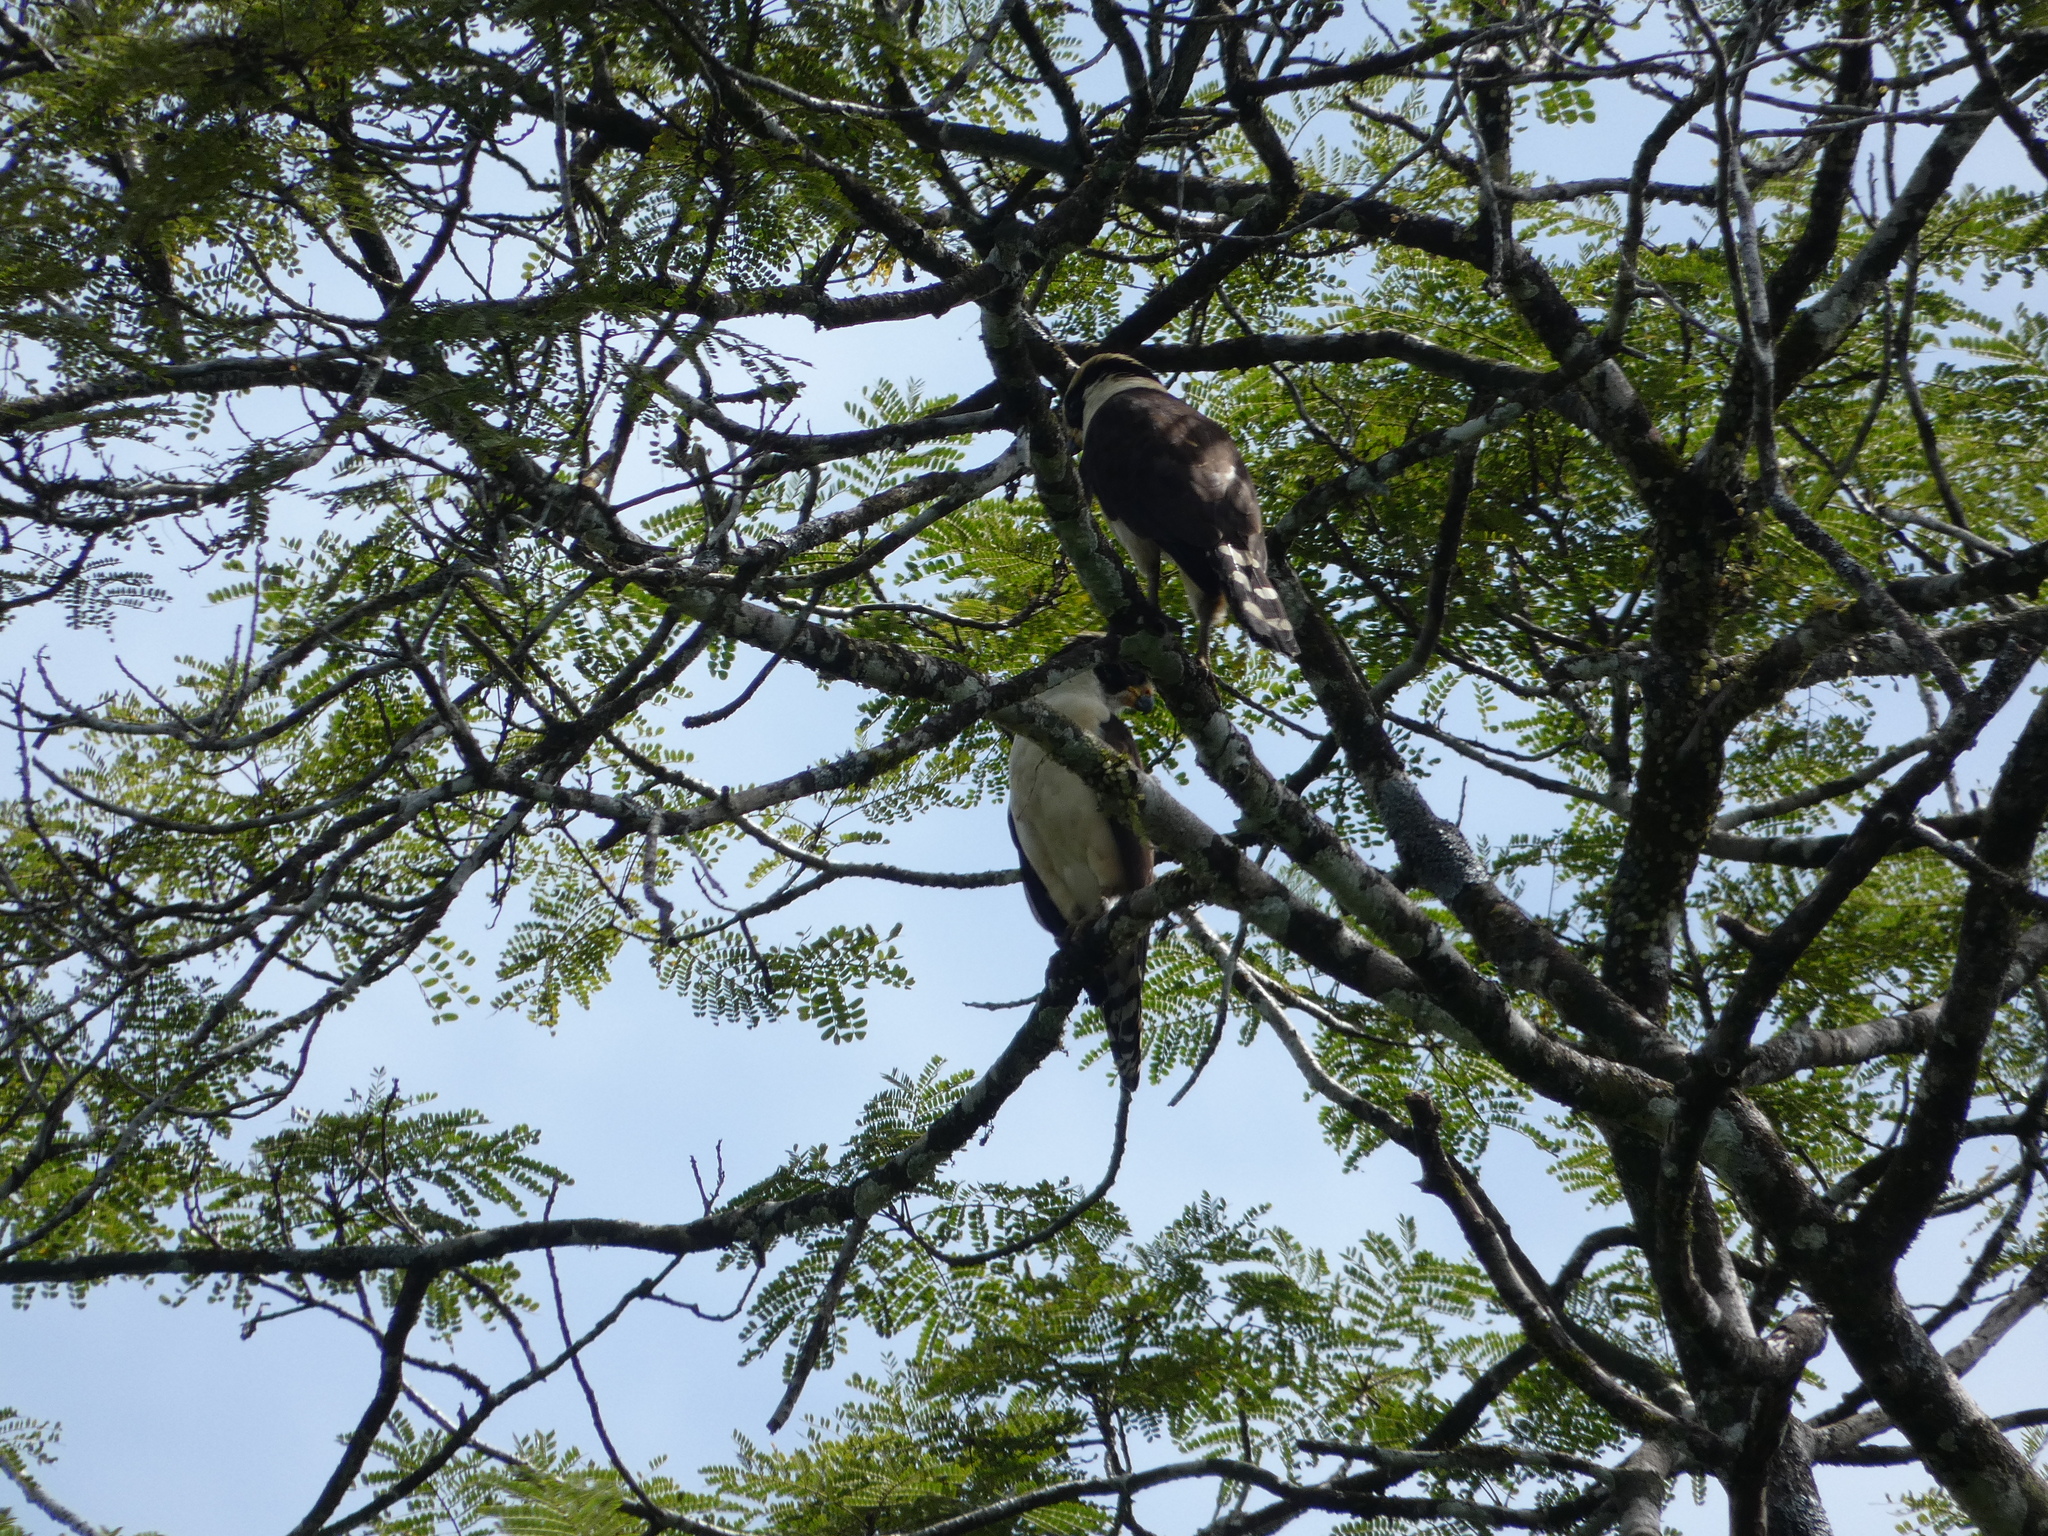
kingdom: Animalia
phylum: Chordata
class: Aves
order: Falconiformes
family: Falconidae
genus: Herpetotheres
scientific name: Herpetotheres cachinnans
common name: Laughing falcon
